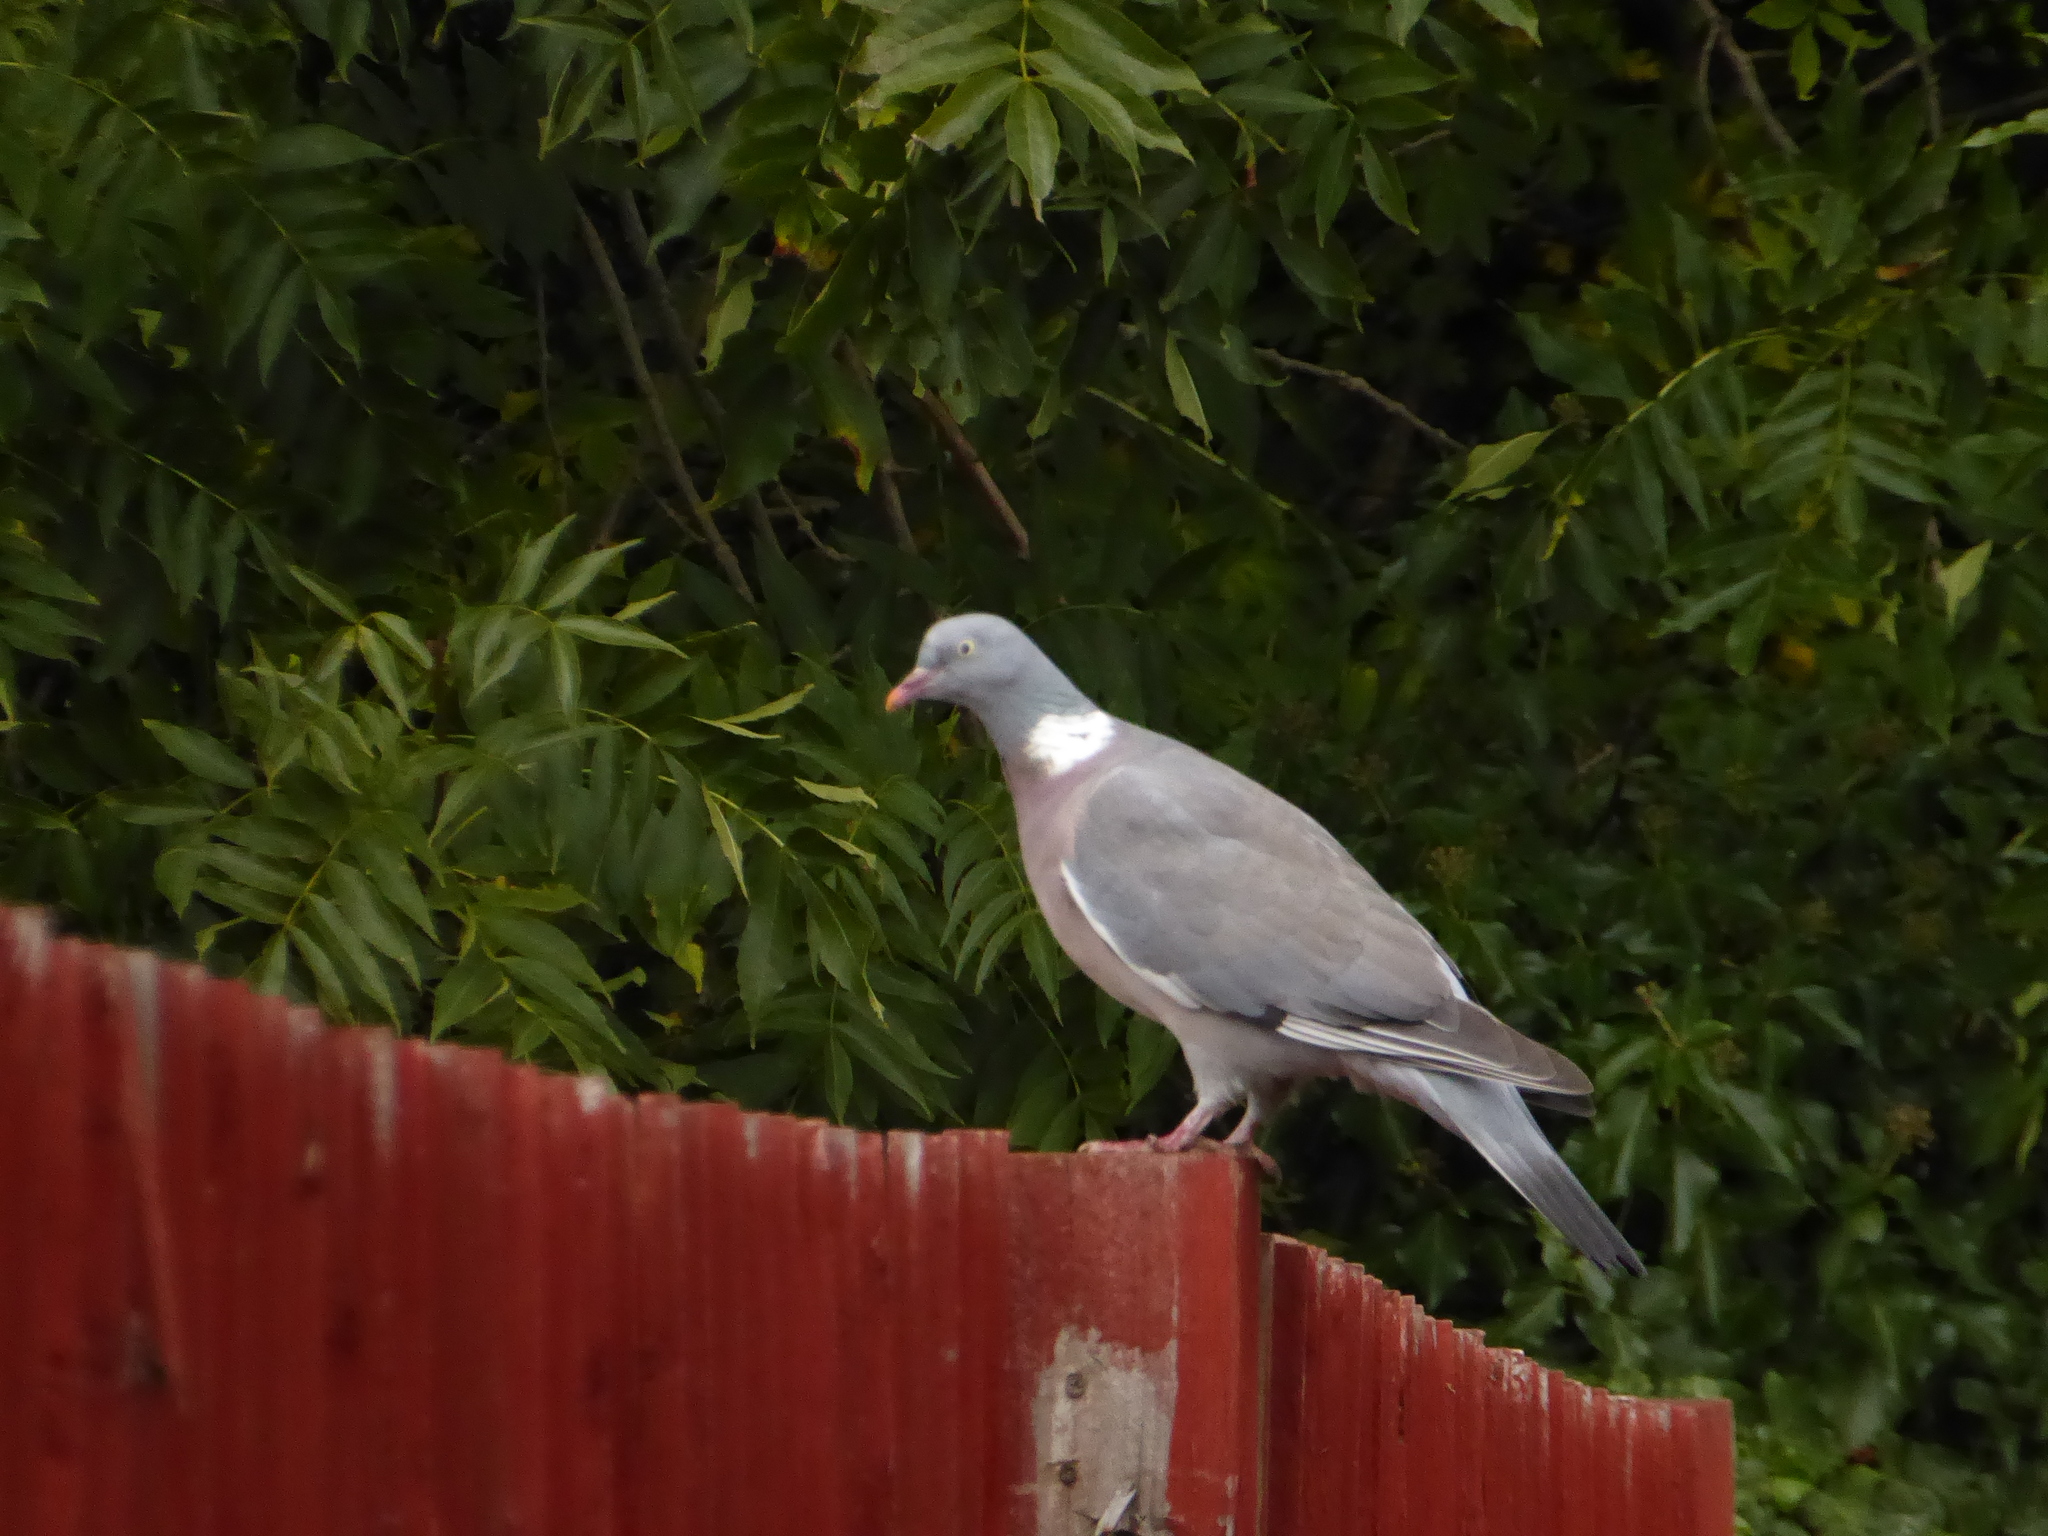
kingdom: Animalia
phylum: Chordata
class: Aves
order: Columbiformes
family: Columbidae
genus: Columba
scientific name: Columba palumbus
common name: Common wood pigeon
